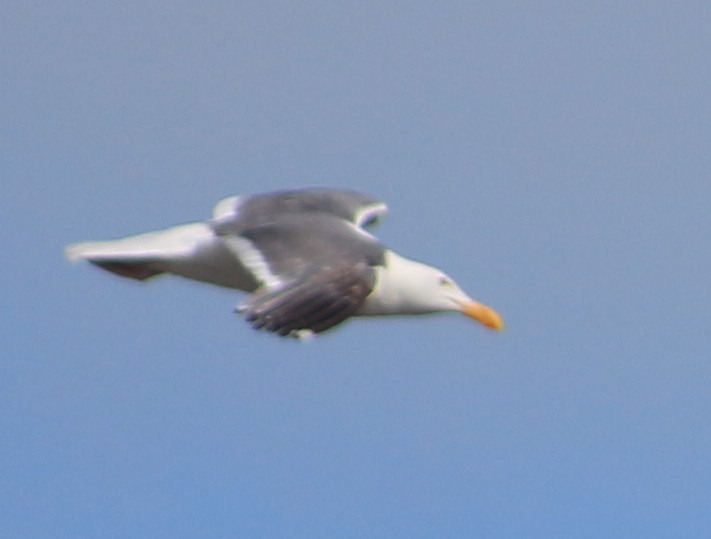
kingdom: Animalia
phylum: Chordata
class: Aves
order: Charadriiformes
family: Laridae
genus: Larus
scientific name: Larus occidentalis
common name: Western gull
